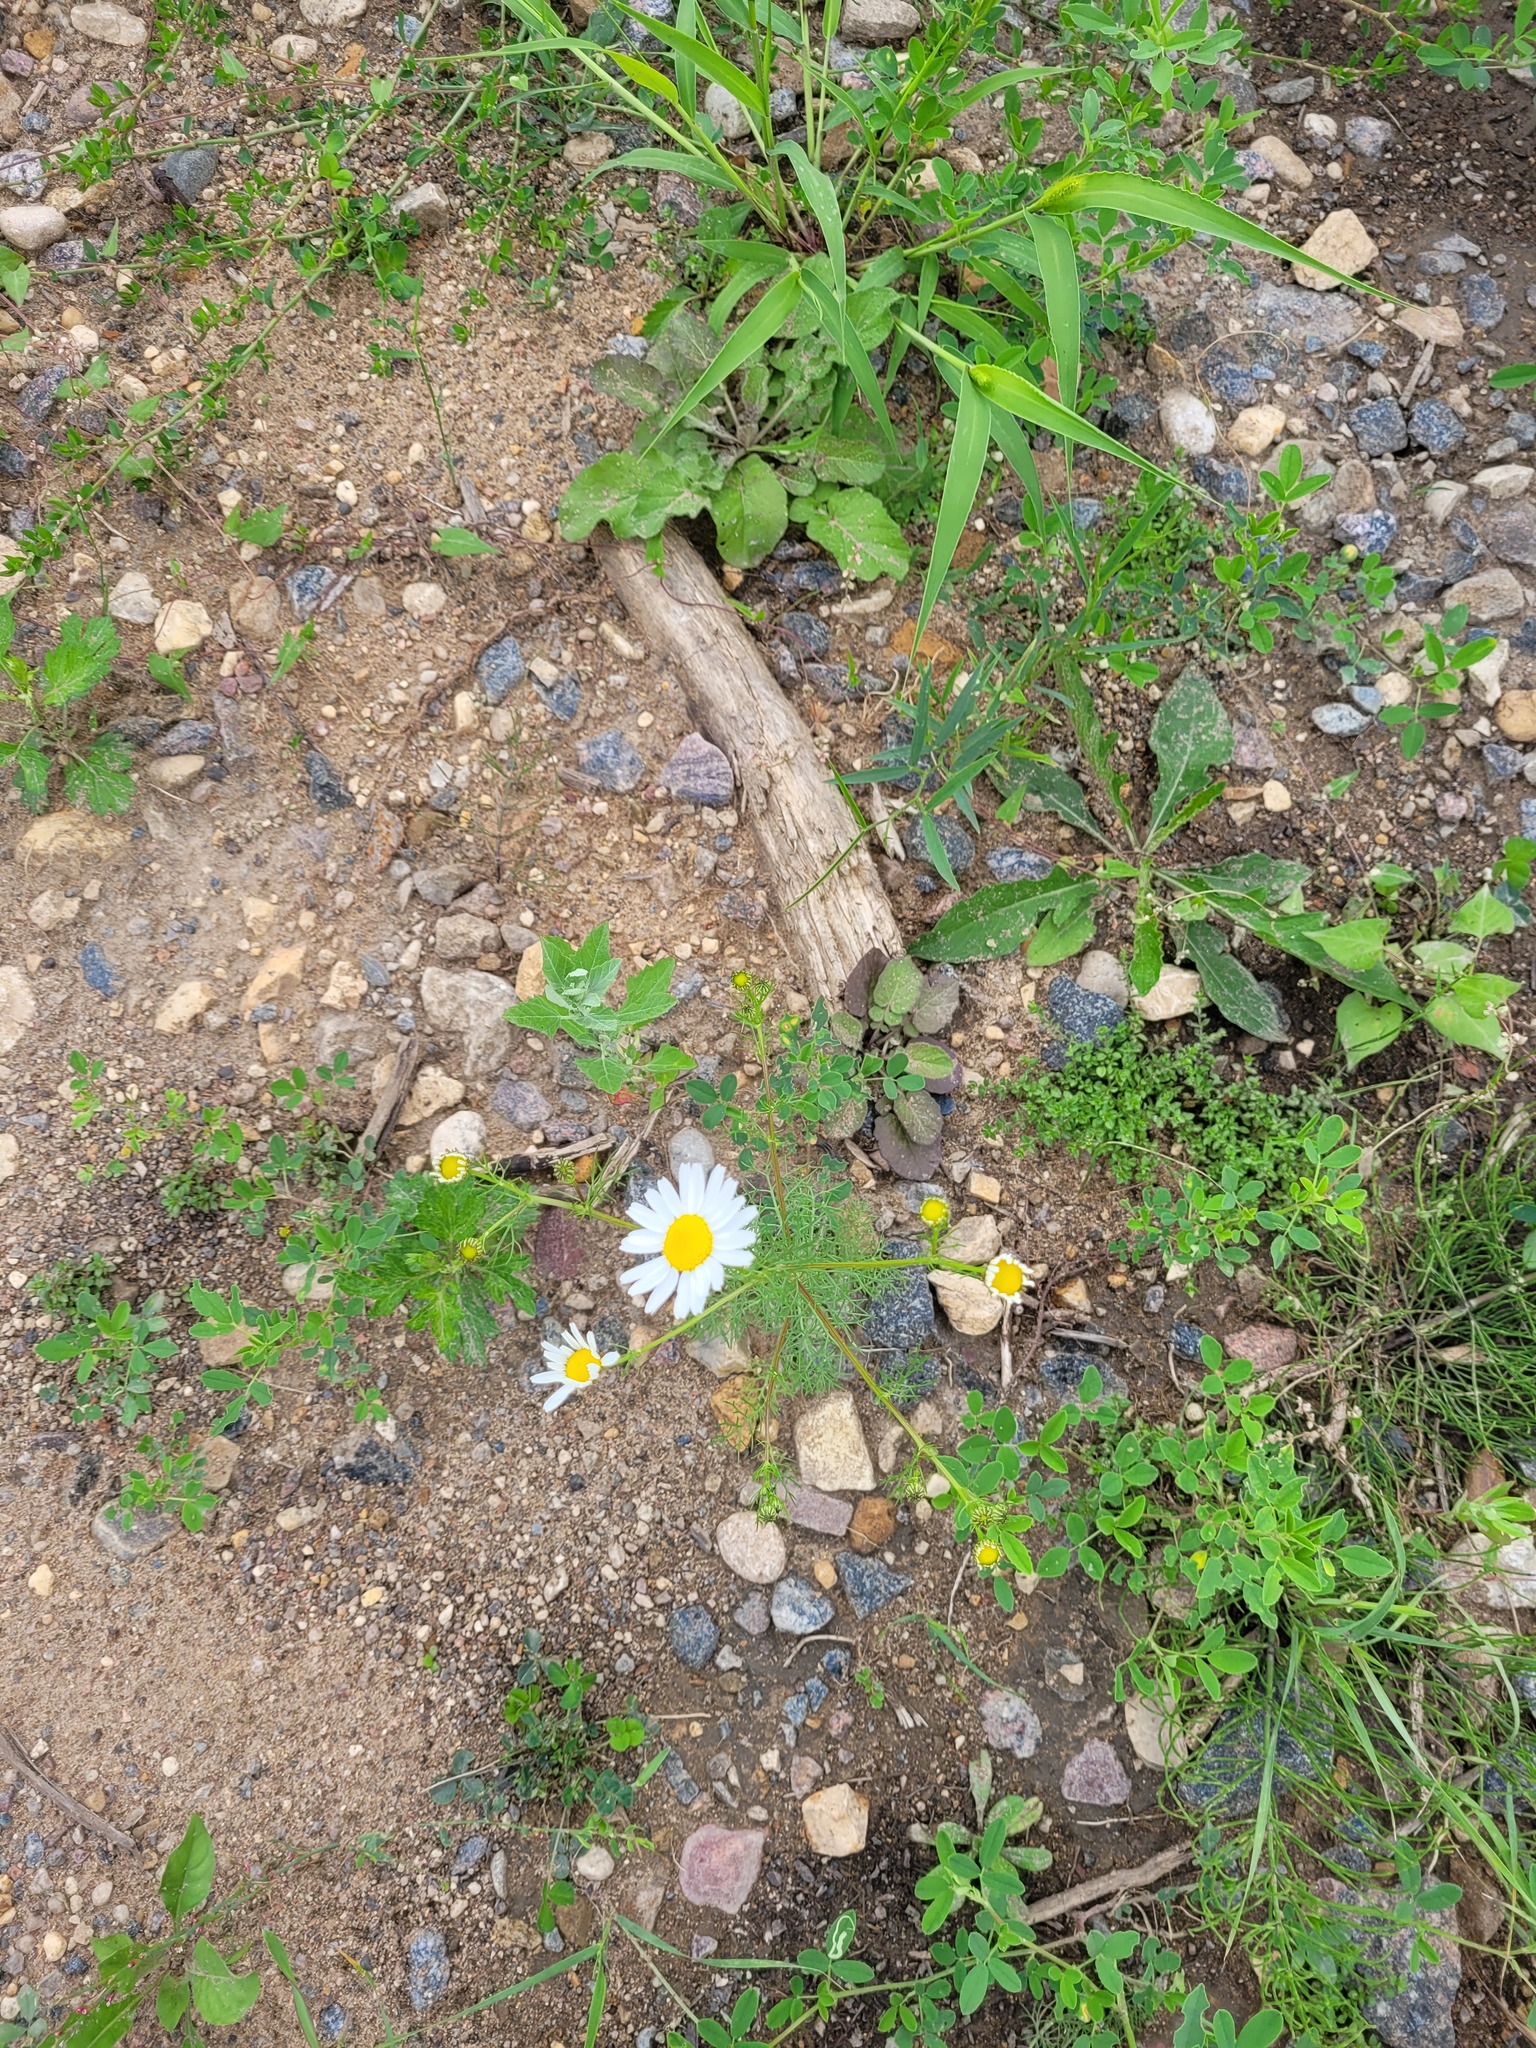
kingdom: Plantae
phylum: Tracheophyta
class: Magnoliopsida
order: Asterales
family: Asteraceae
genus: Tripleurospermum
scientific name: Tripleurospermum inodorum
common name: Scentless mayweed
